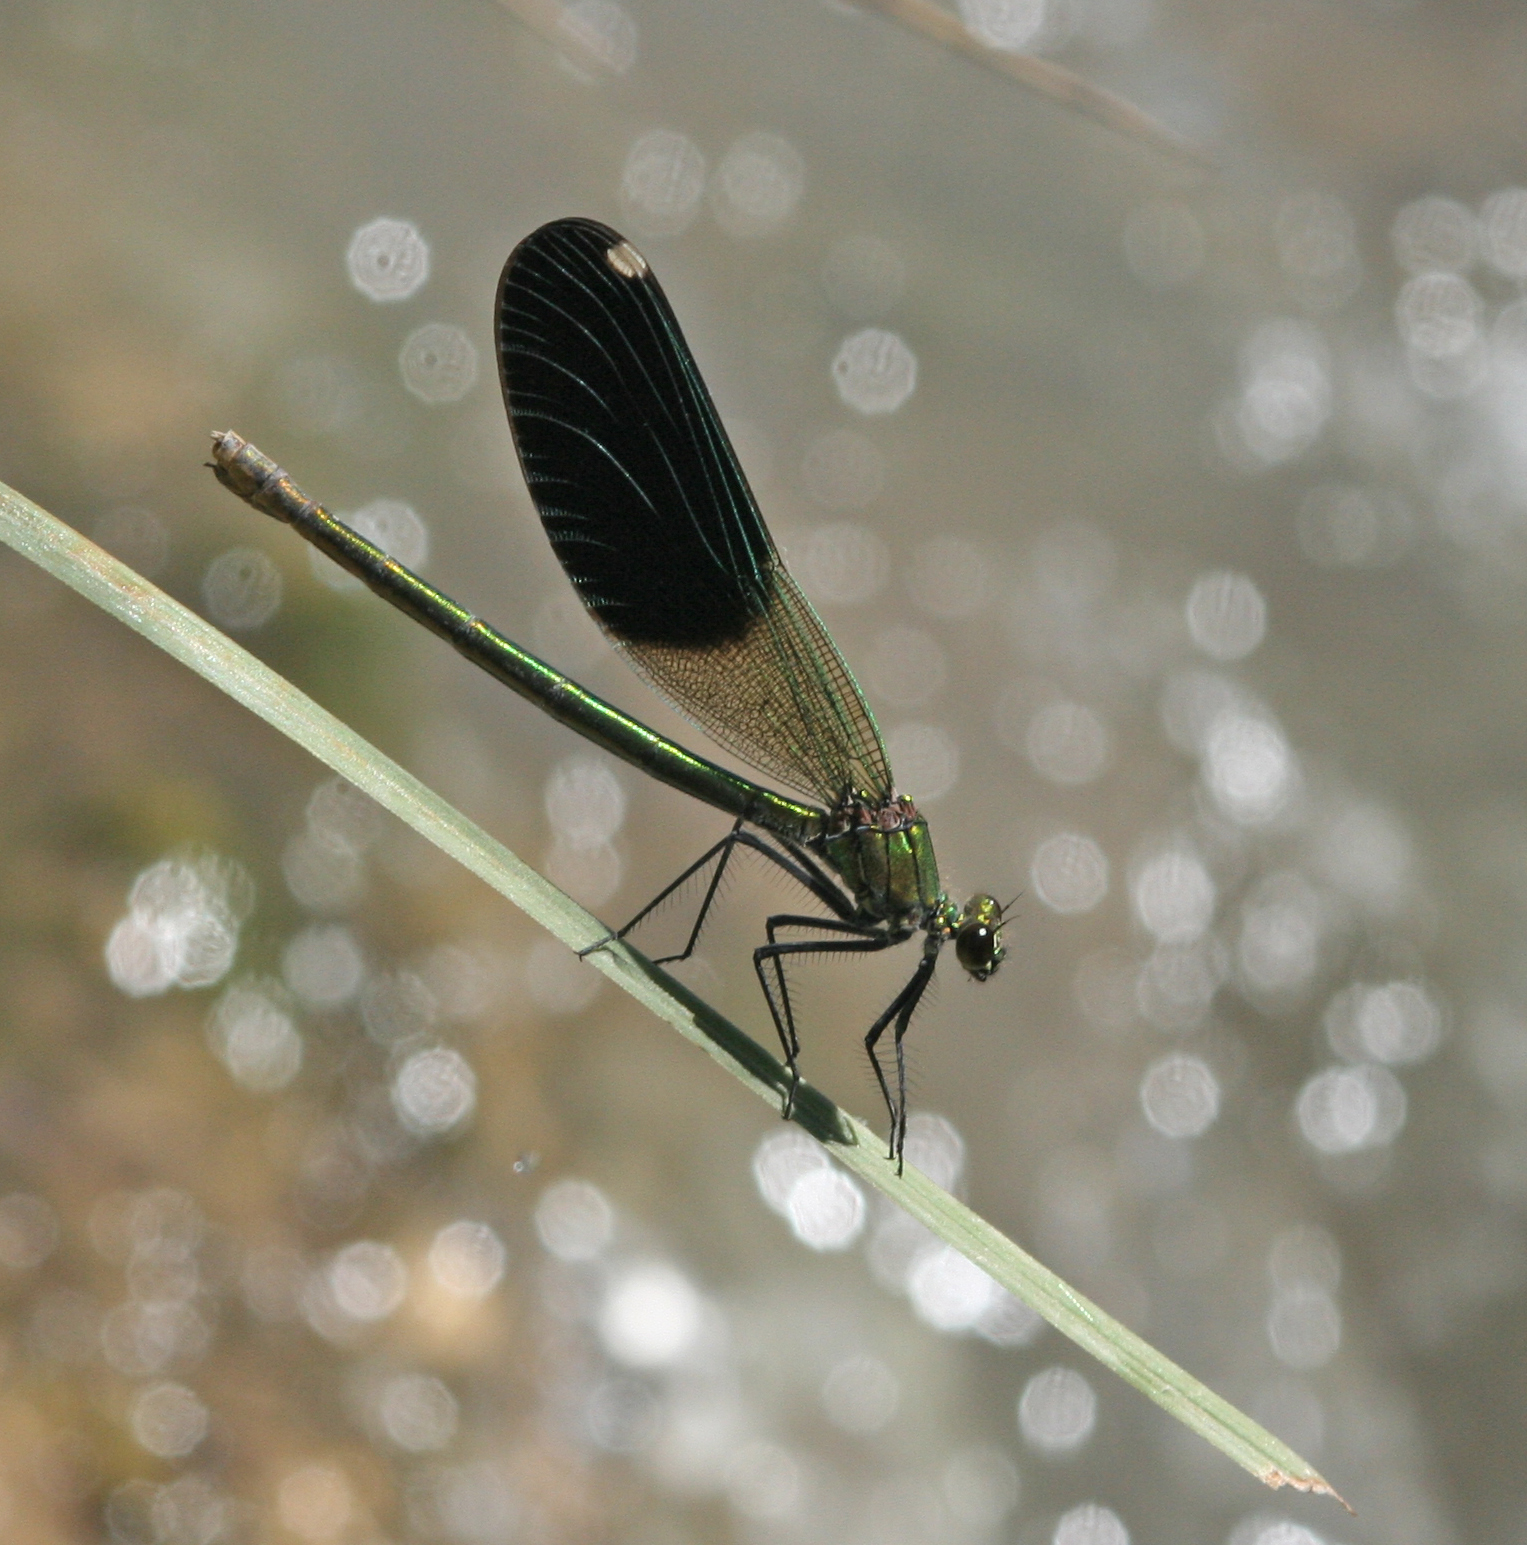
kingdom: Animalia
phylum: Arthropoda
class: Insecta
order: Odonata
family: Calopterygidae
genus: Calopteryx
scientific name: Calopteryx splendens
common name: Banded demoiselle
